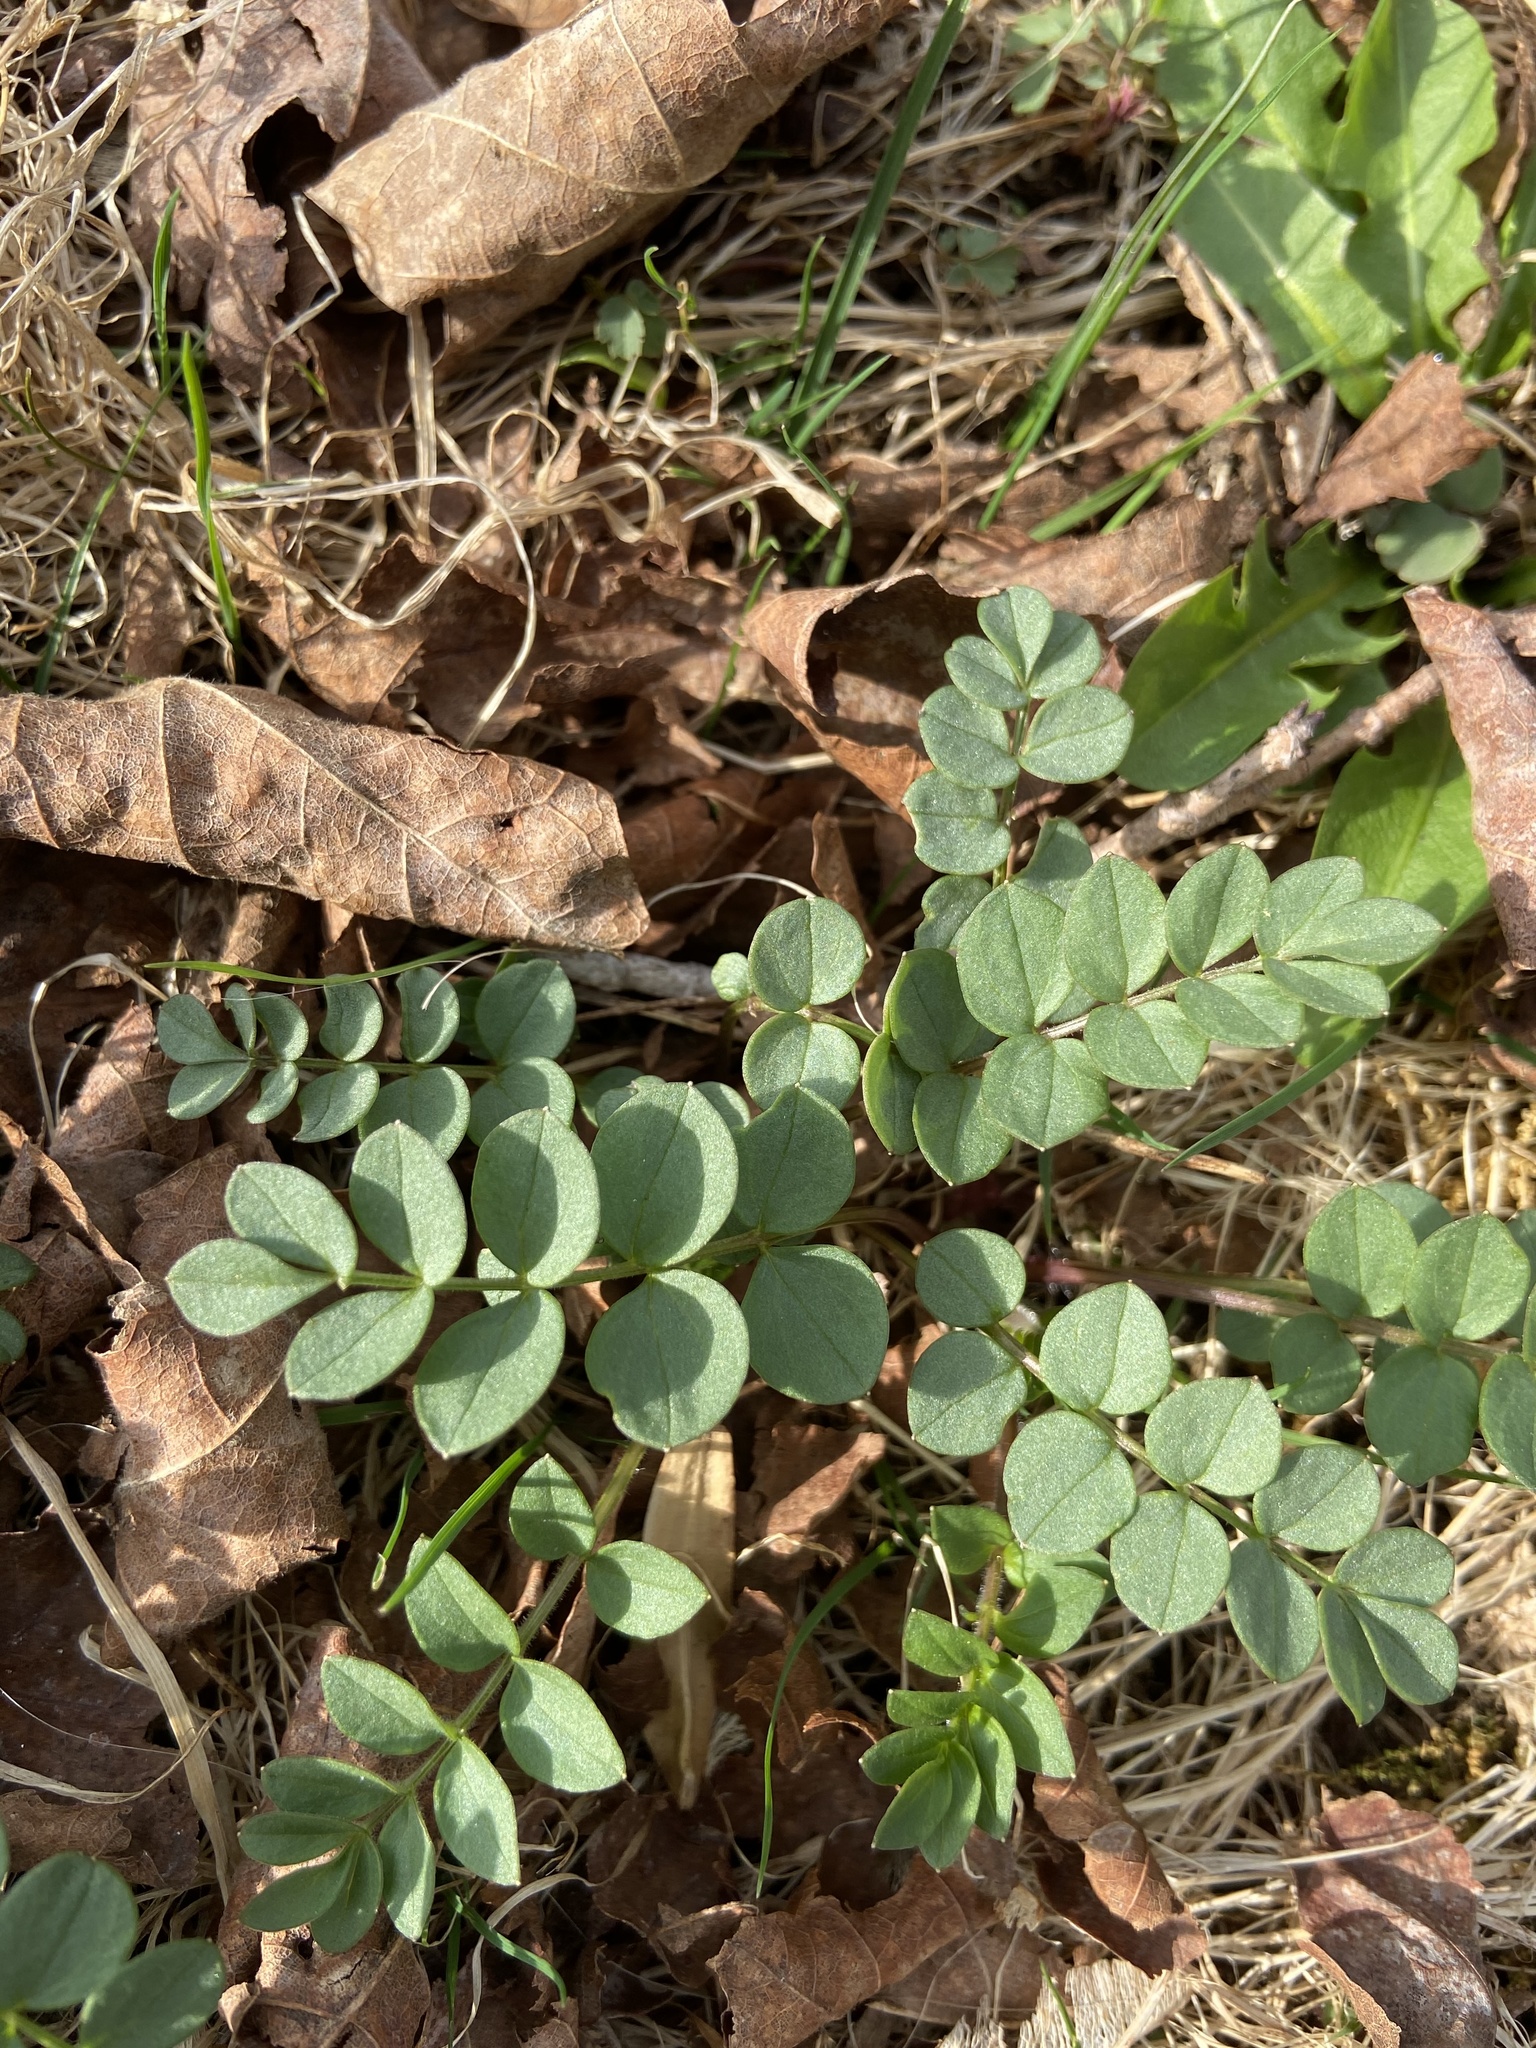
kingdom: Plantae
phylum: Tracheophyta
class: Magnoliopsida
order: Ericales
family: Polemoniaceae
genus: Polemonium
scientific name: Polemonium reptans
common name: Creeping jacob's-ladder
